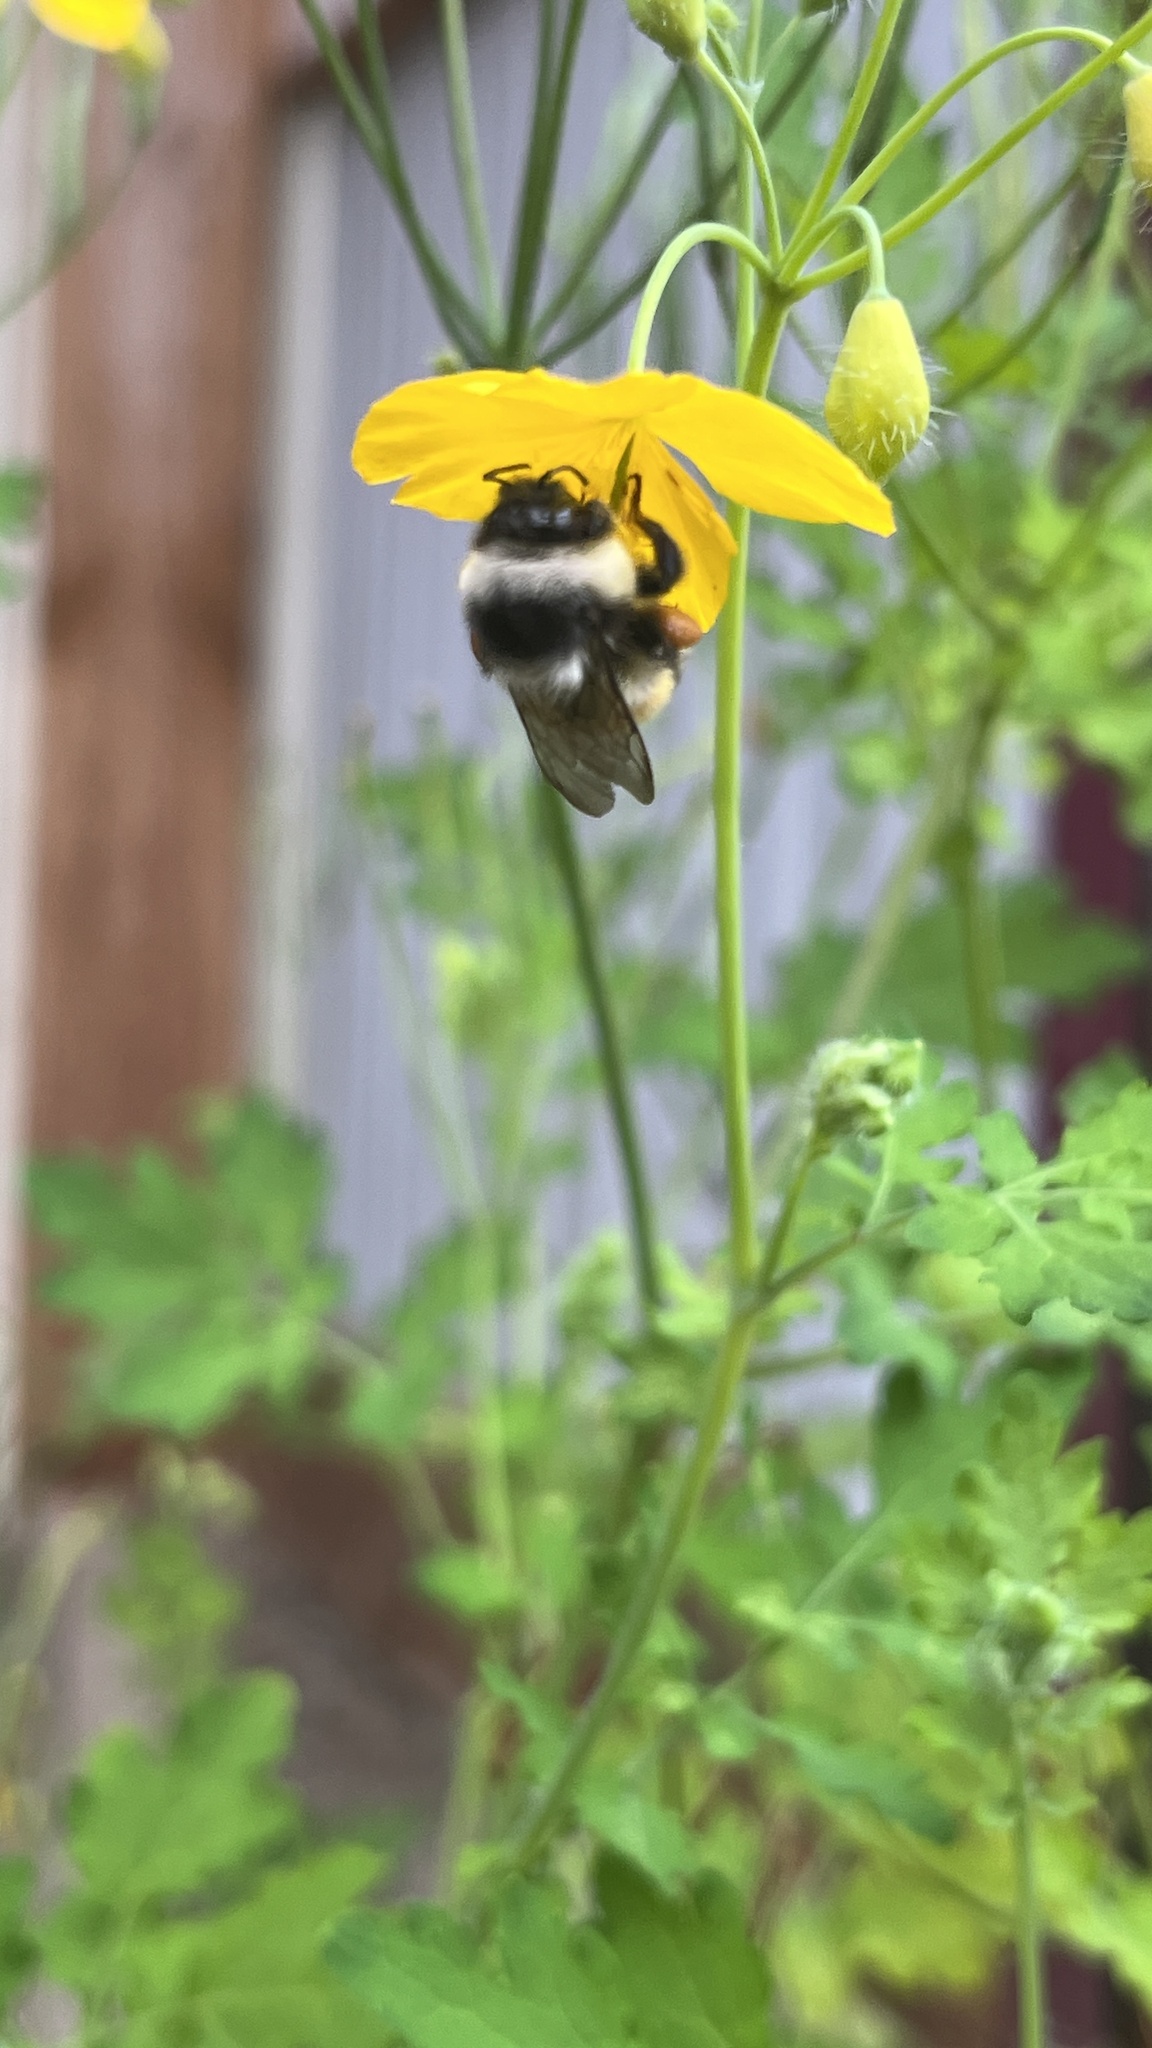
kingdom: Animalia
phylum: Arthropoda
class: Insecta
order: Hymenoptera
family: Apidae
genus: Bombus
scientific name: Bombus patagiatus
